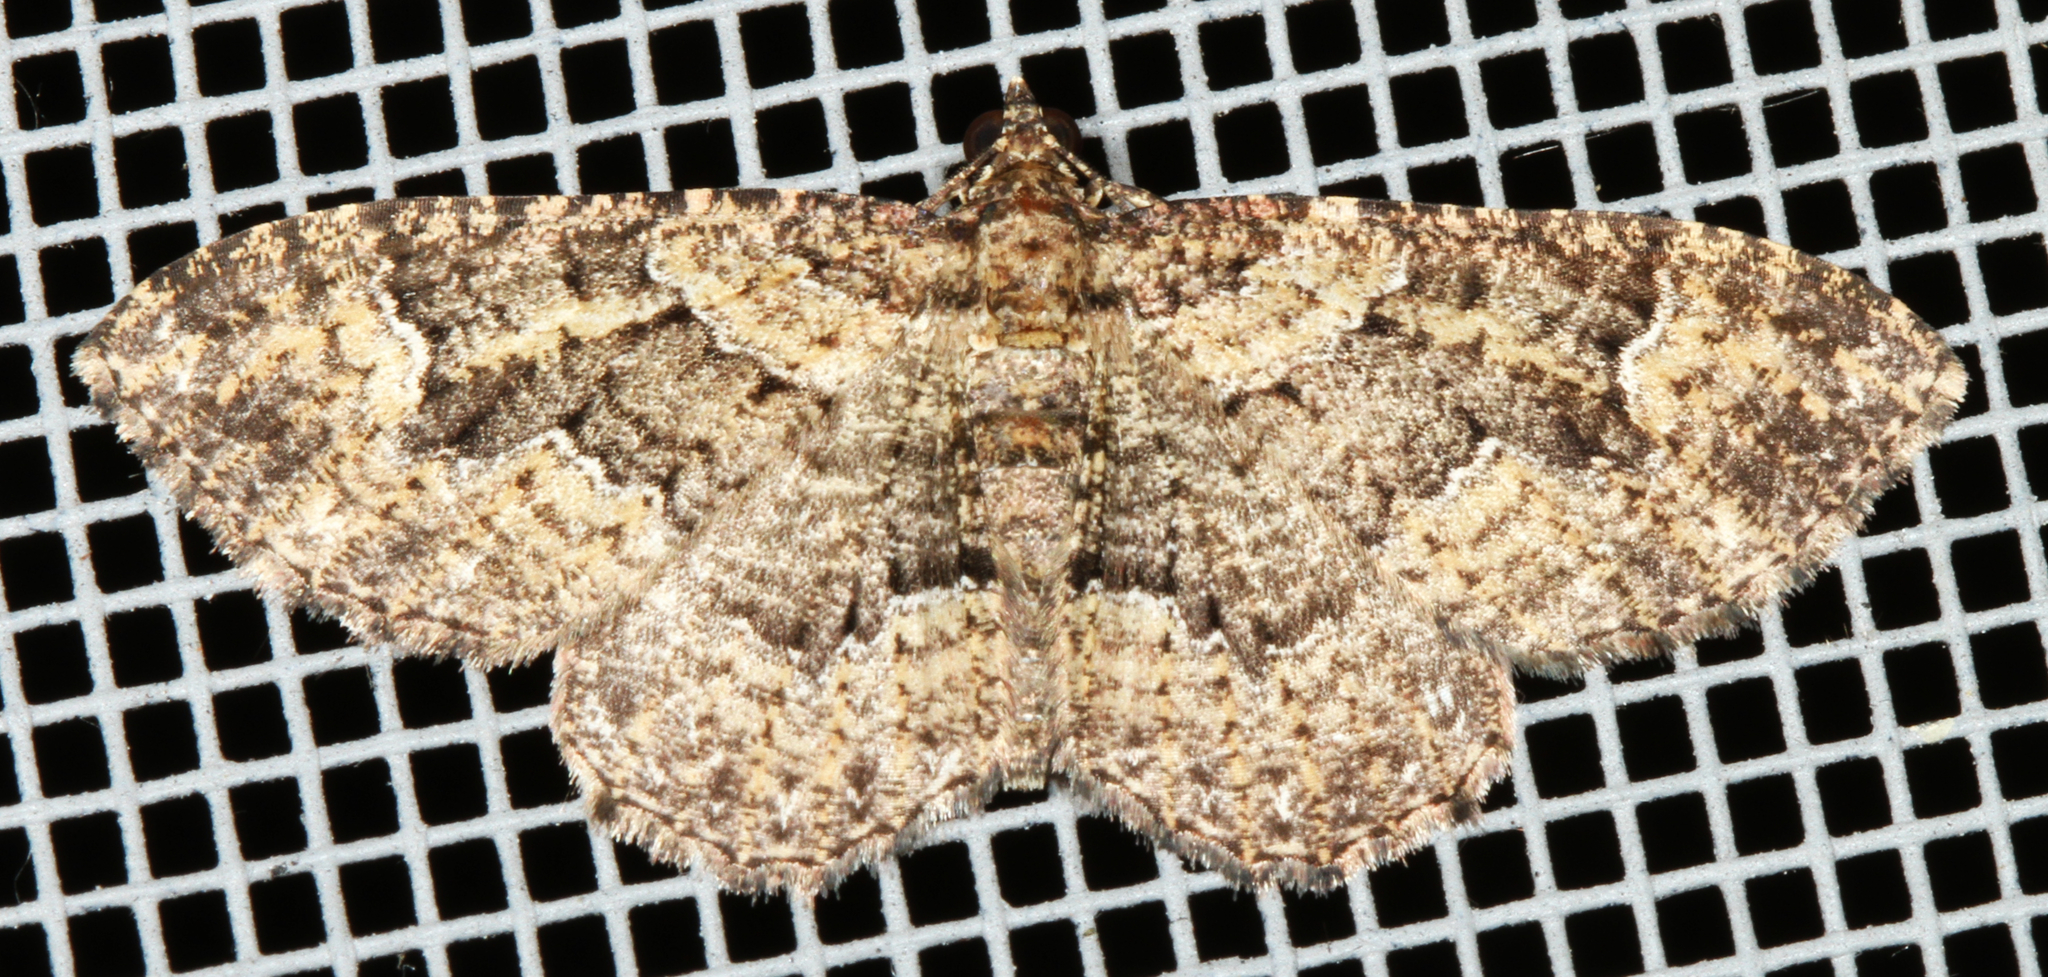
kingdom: Animalia
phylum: Arthropoda
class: Insecta
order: Lepidoptera
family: Geometridae
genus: Disclisioprocta
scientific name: Disclisioprocta stellata
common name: Somber carpet
